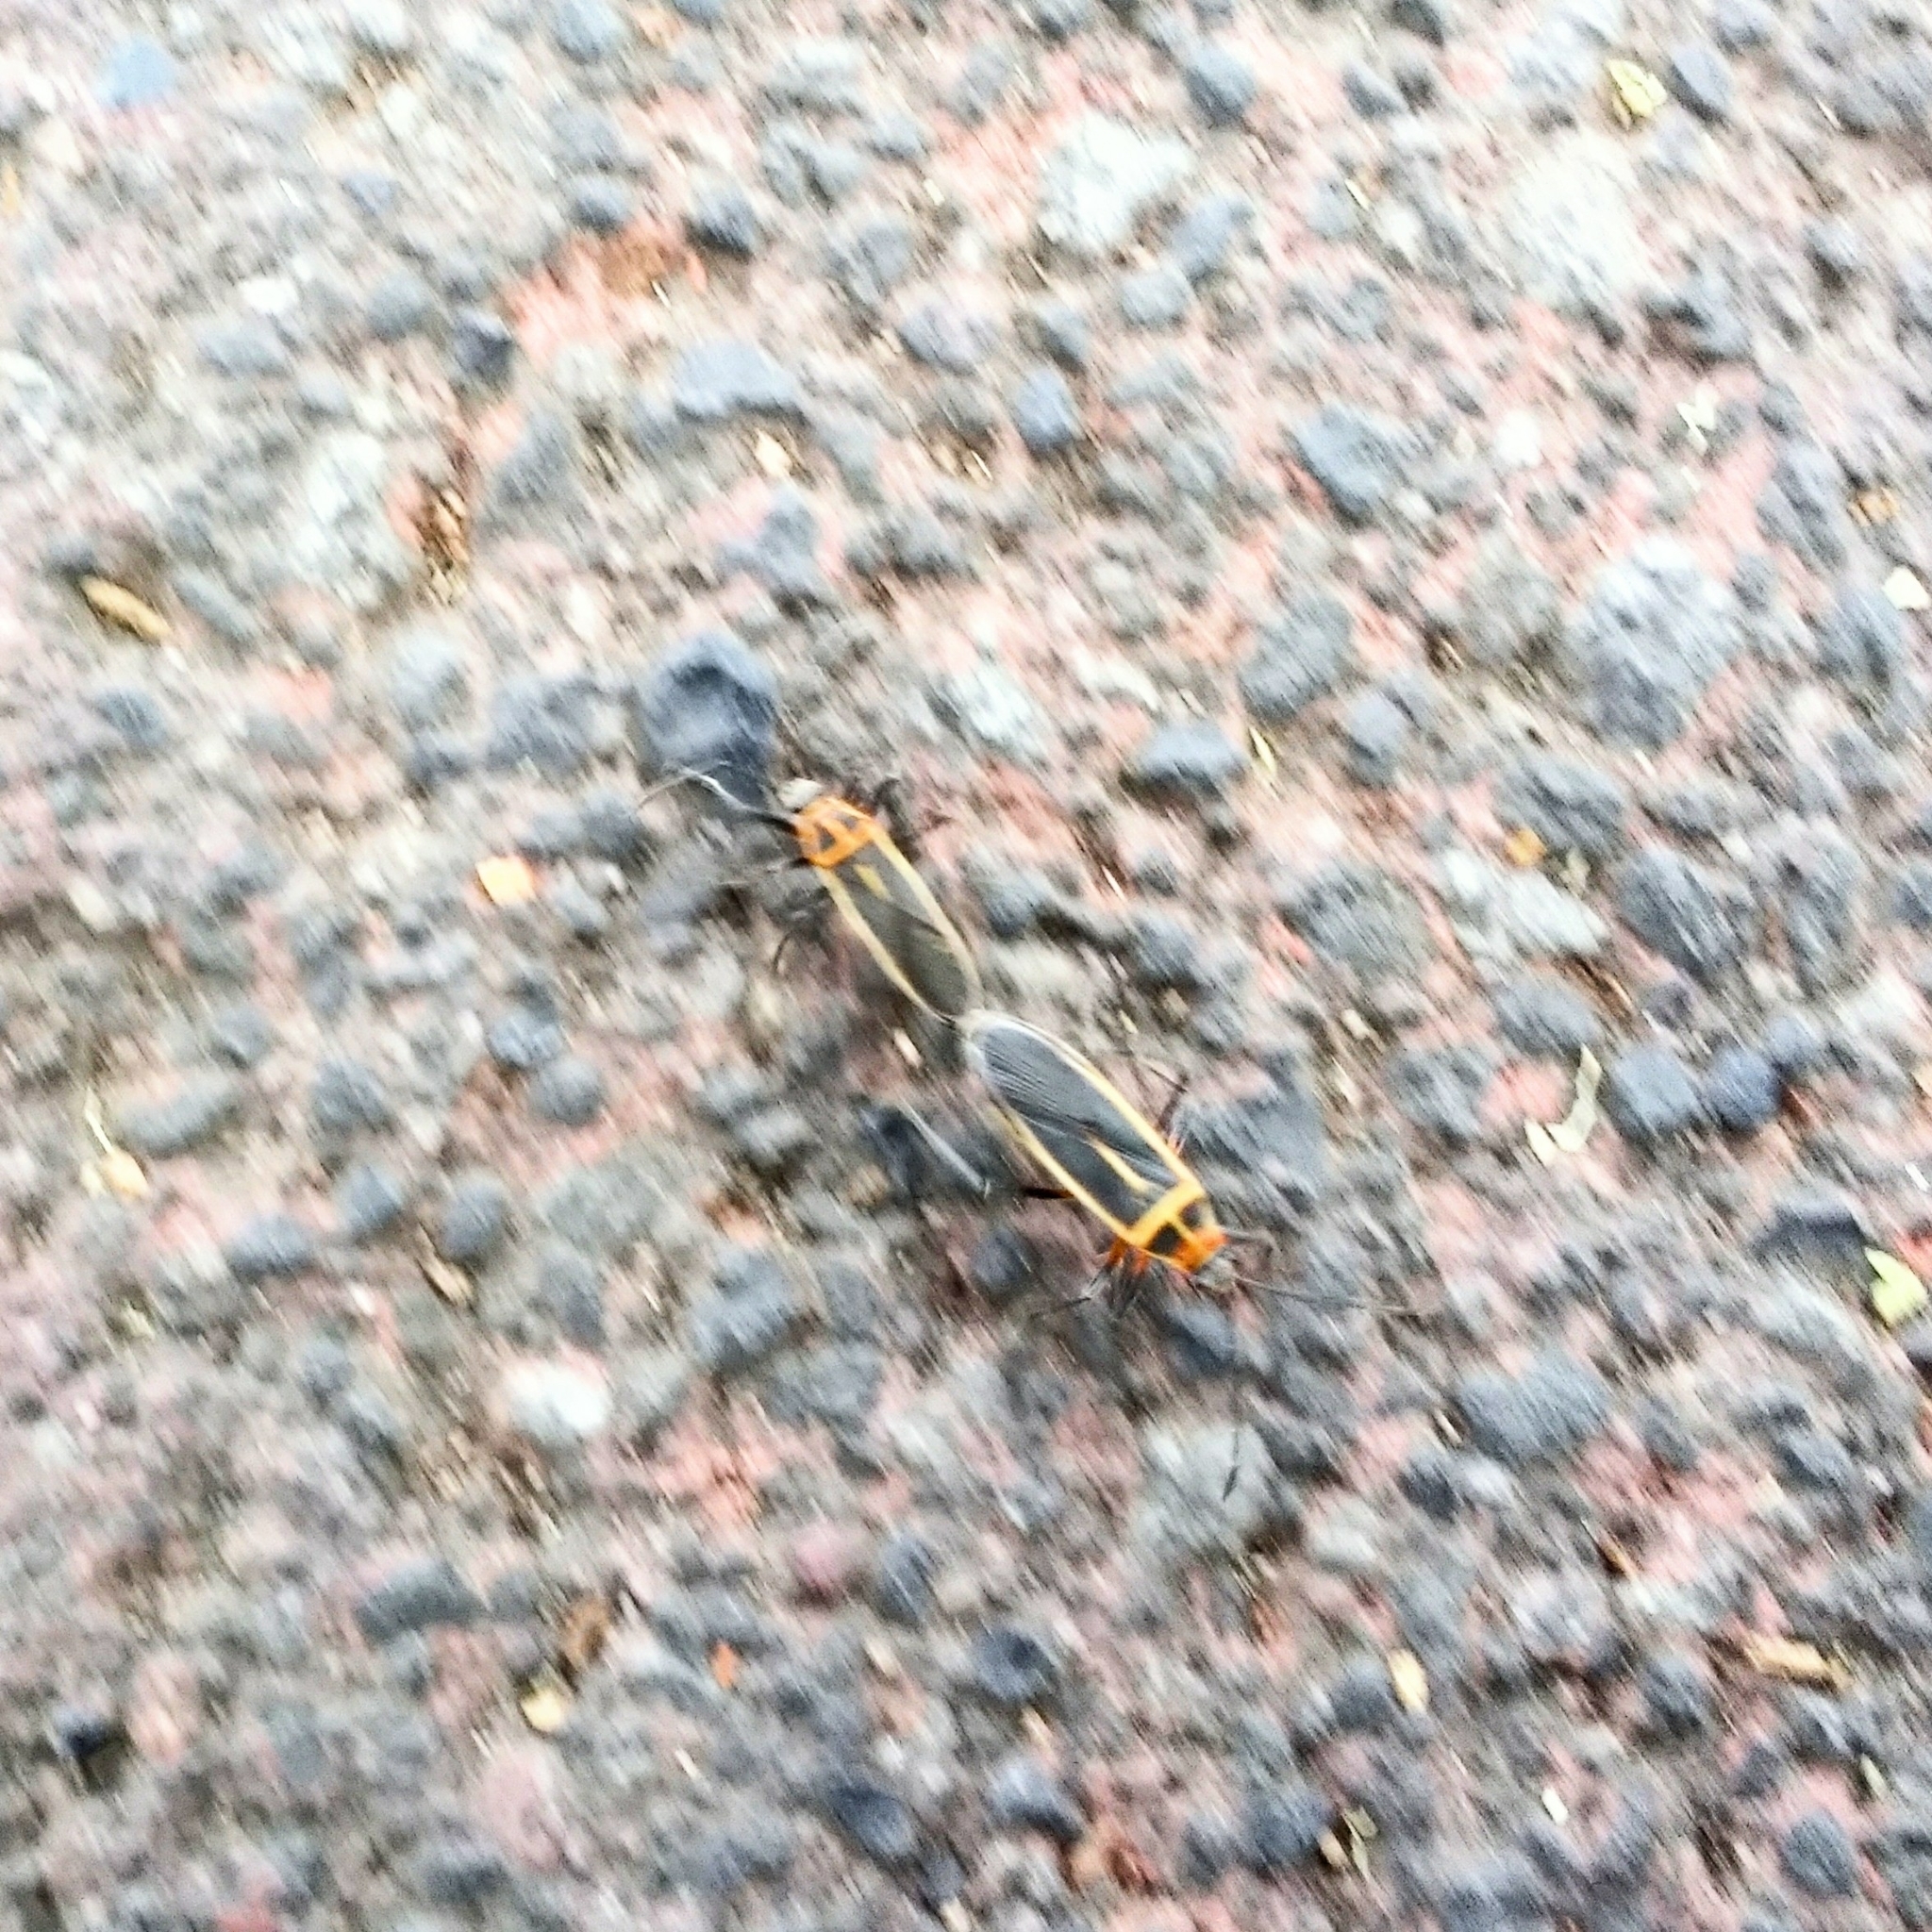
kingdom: Animalia
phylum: Arthropoda
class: Insecta
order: Hemiptera
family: Largidae
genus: Stenomacra
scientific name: Stenomacra marginella
